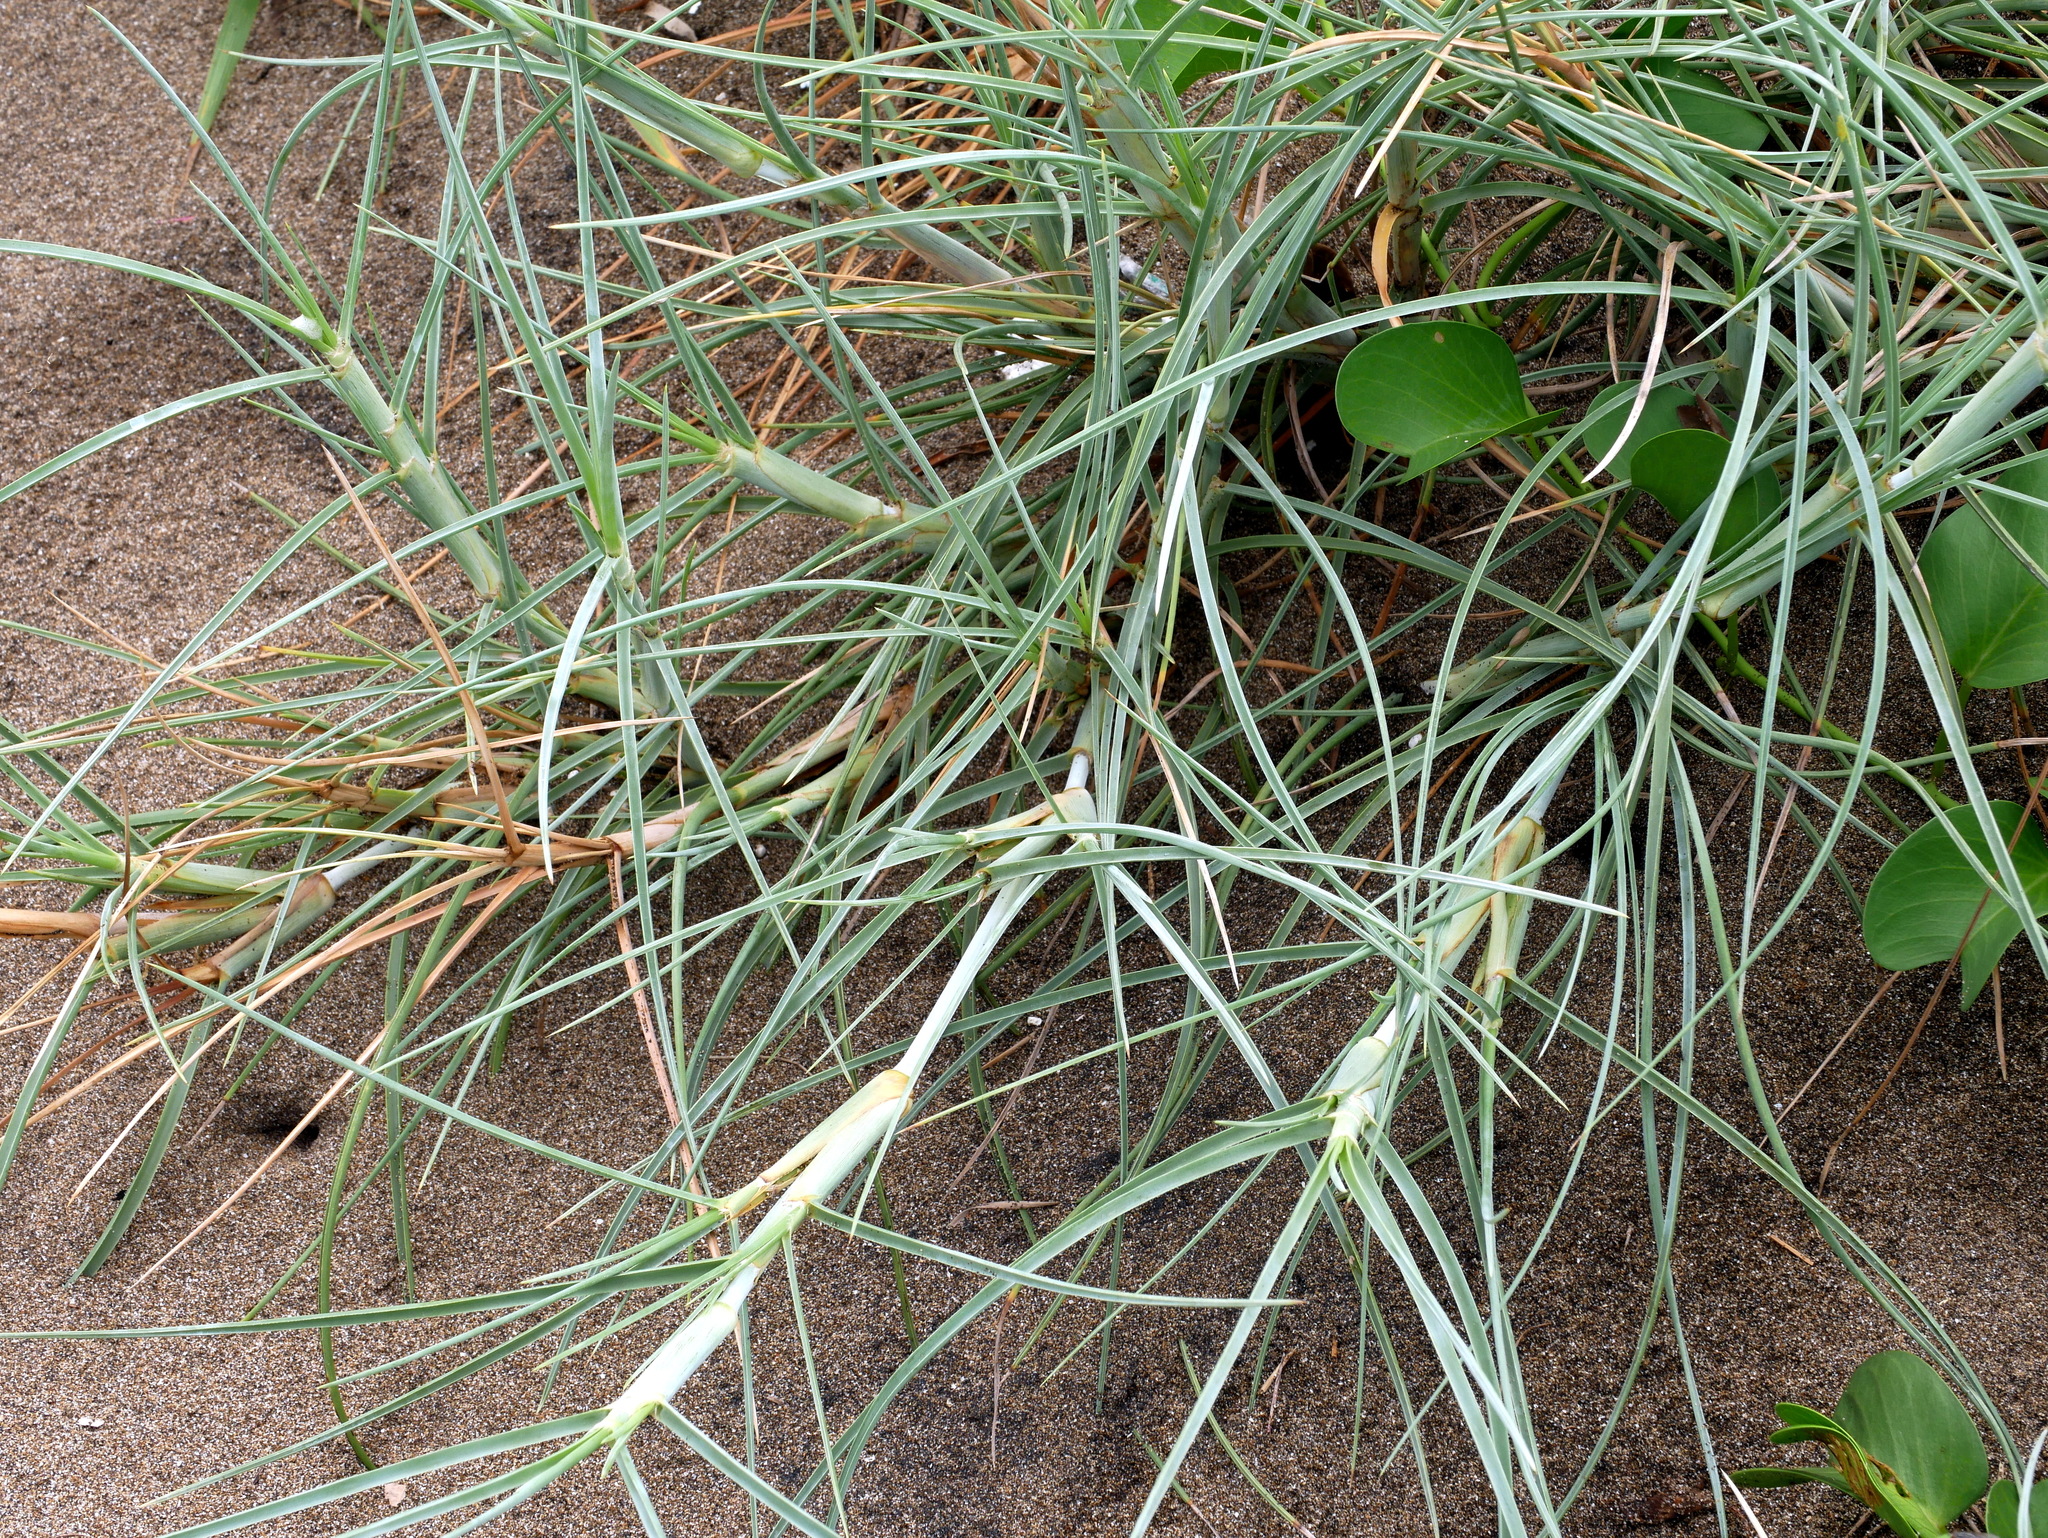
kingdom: Plantae
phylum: Tracheophyta
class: Liliopsida
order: Poales
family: Poaceae
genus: Spinifex
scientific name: Spinifex littoreus
